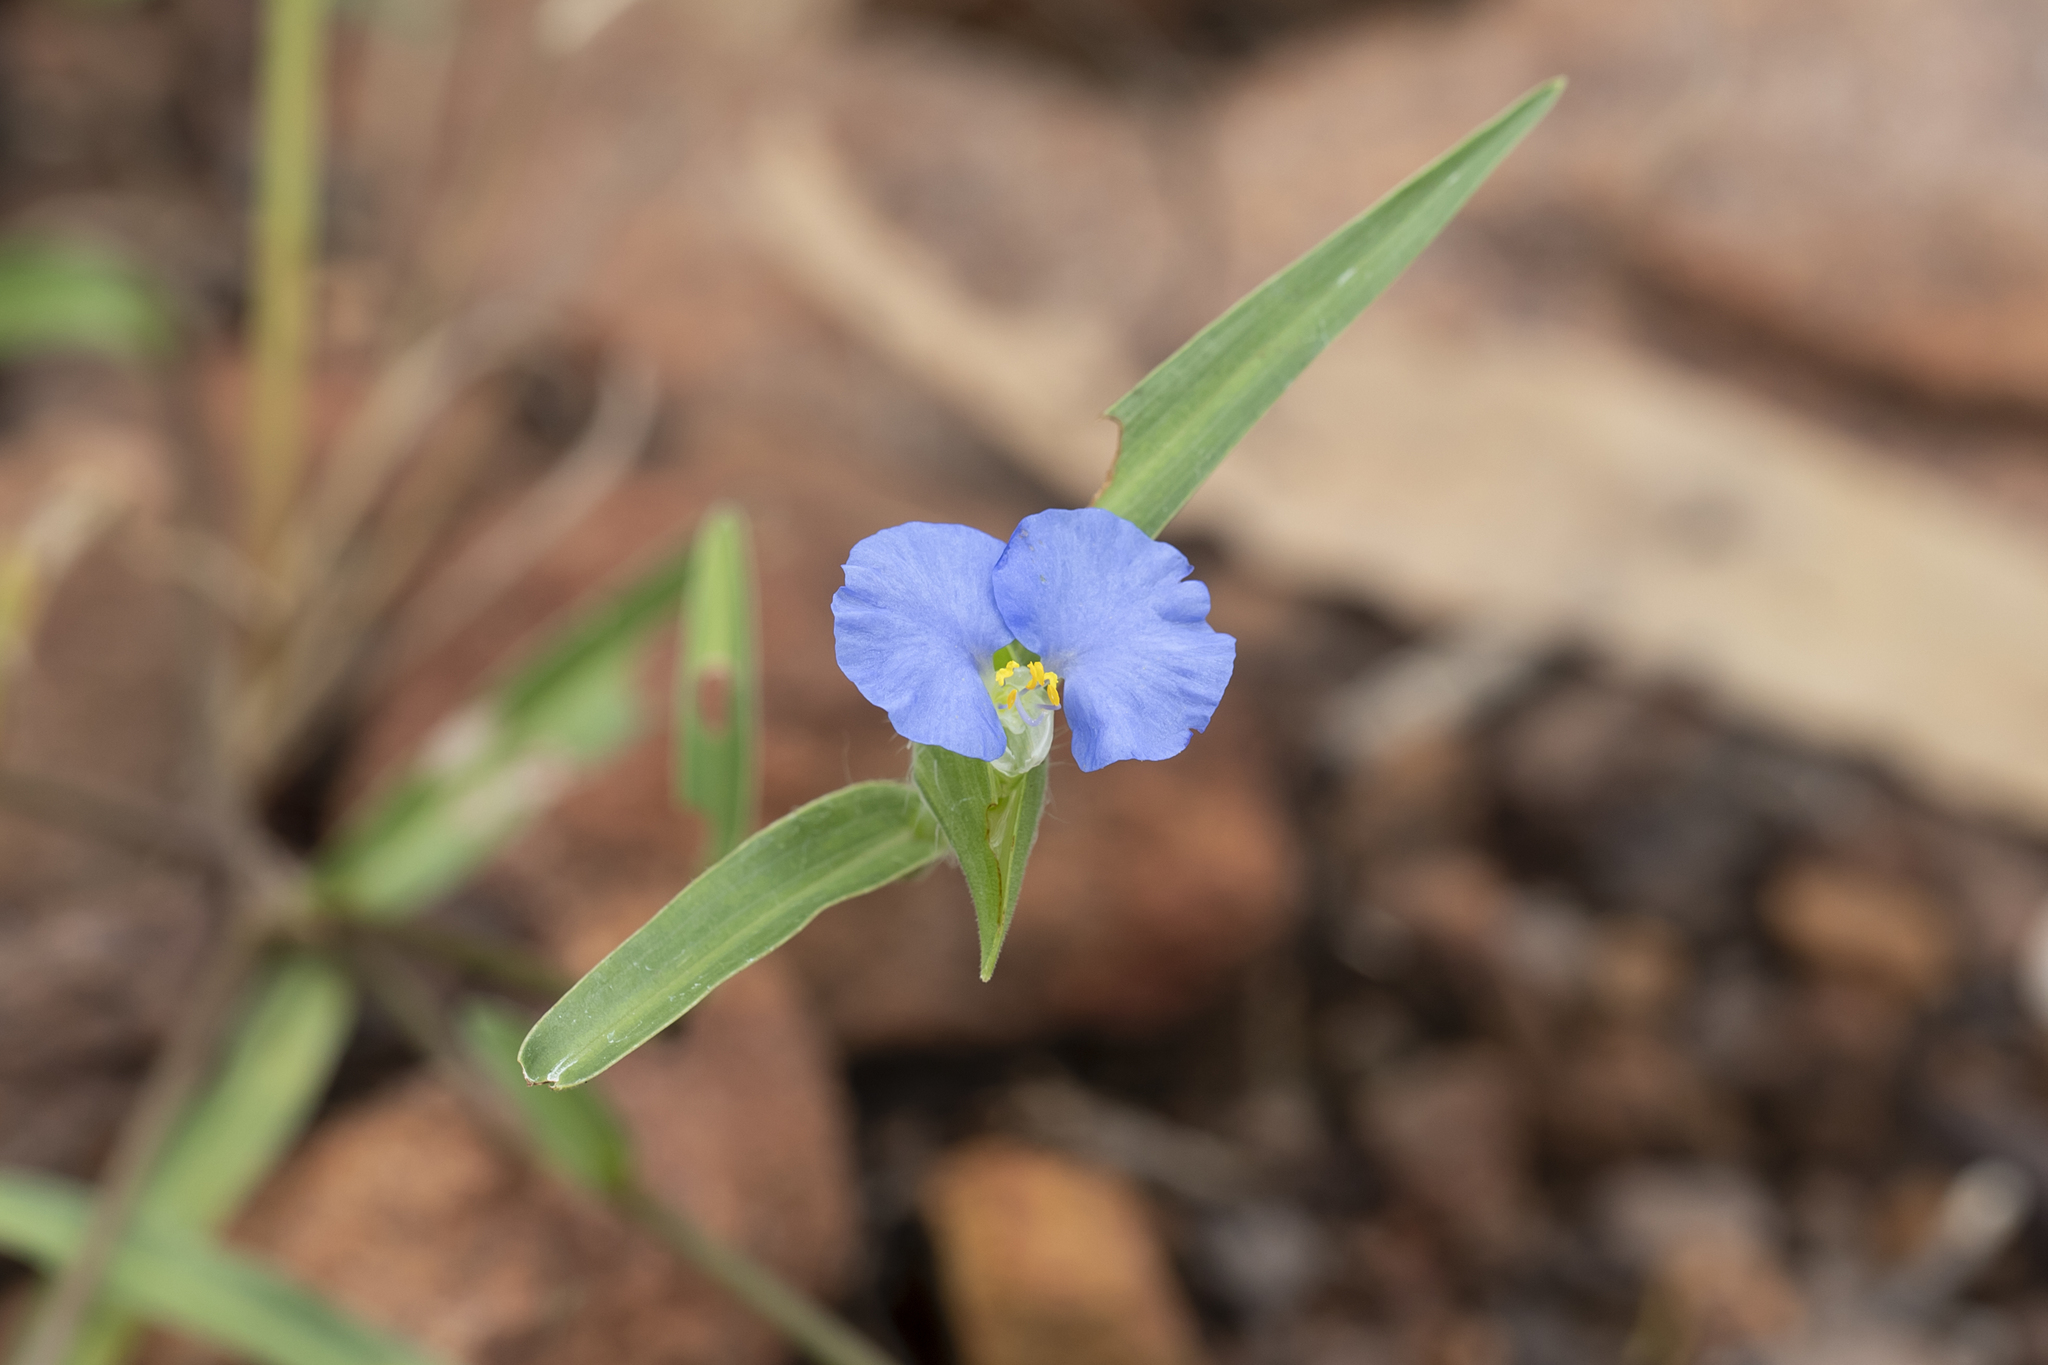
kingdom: Plantae
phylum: Tracheophyta
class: Liliopsida
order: Commelinales
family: Commelinaceae
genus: Commelina
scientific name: Commelina ensifolia
